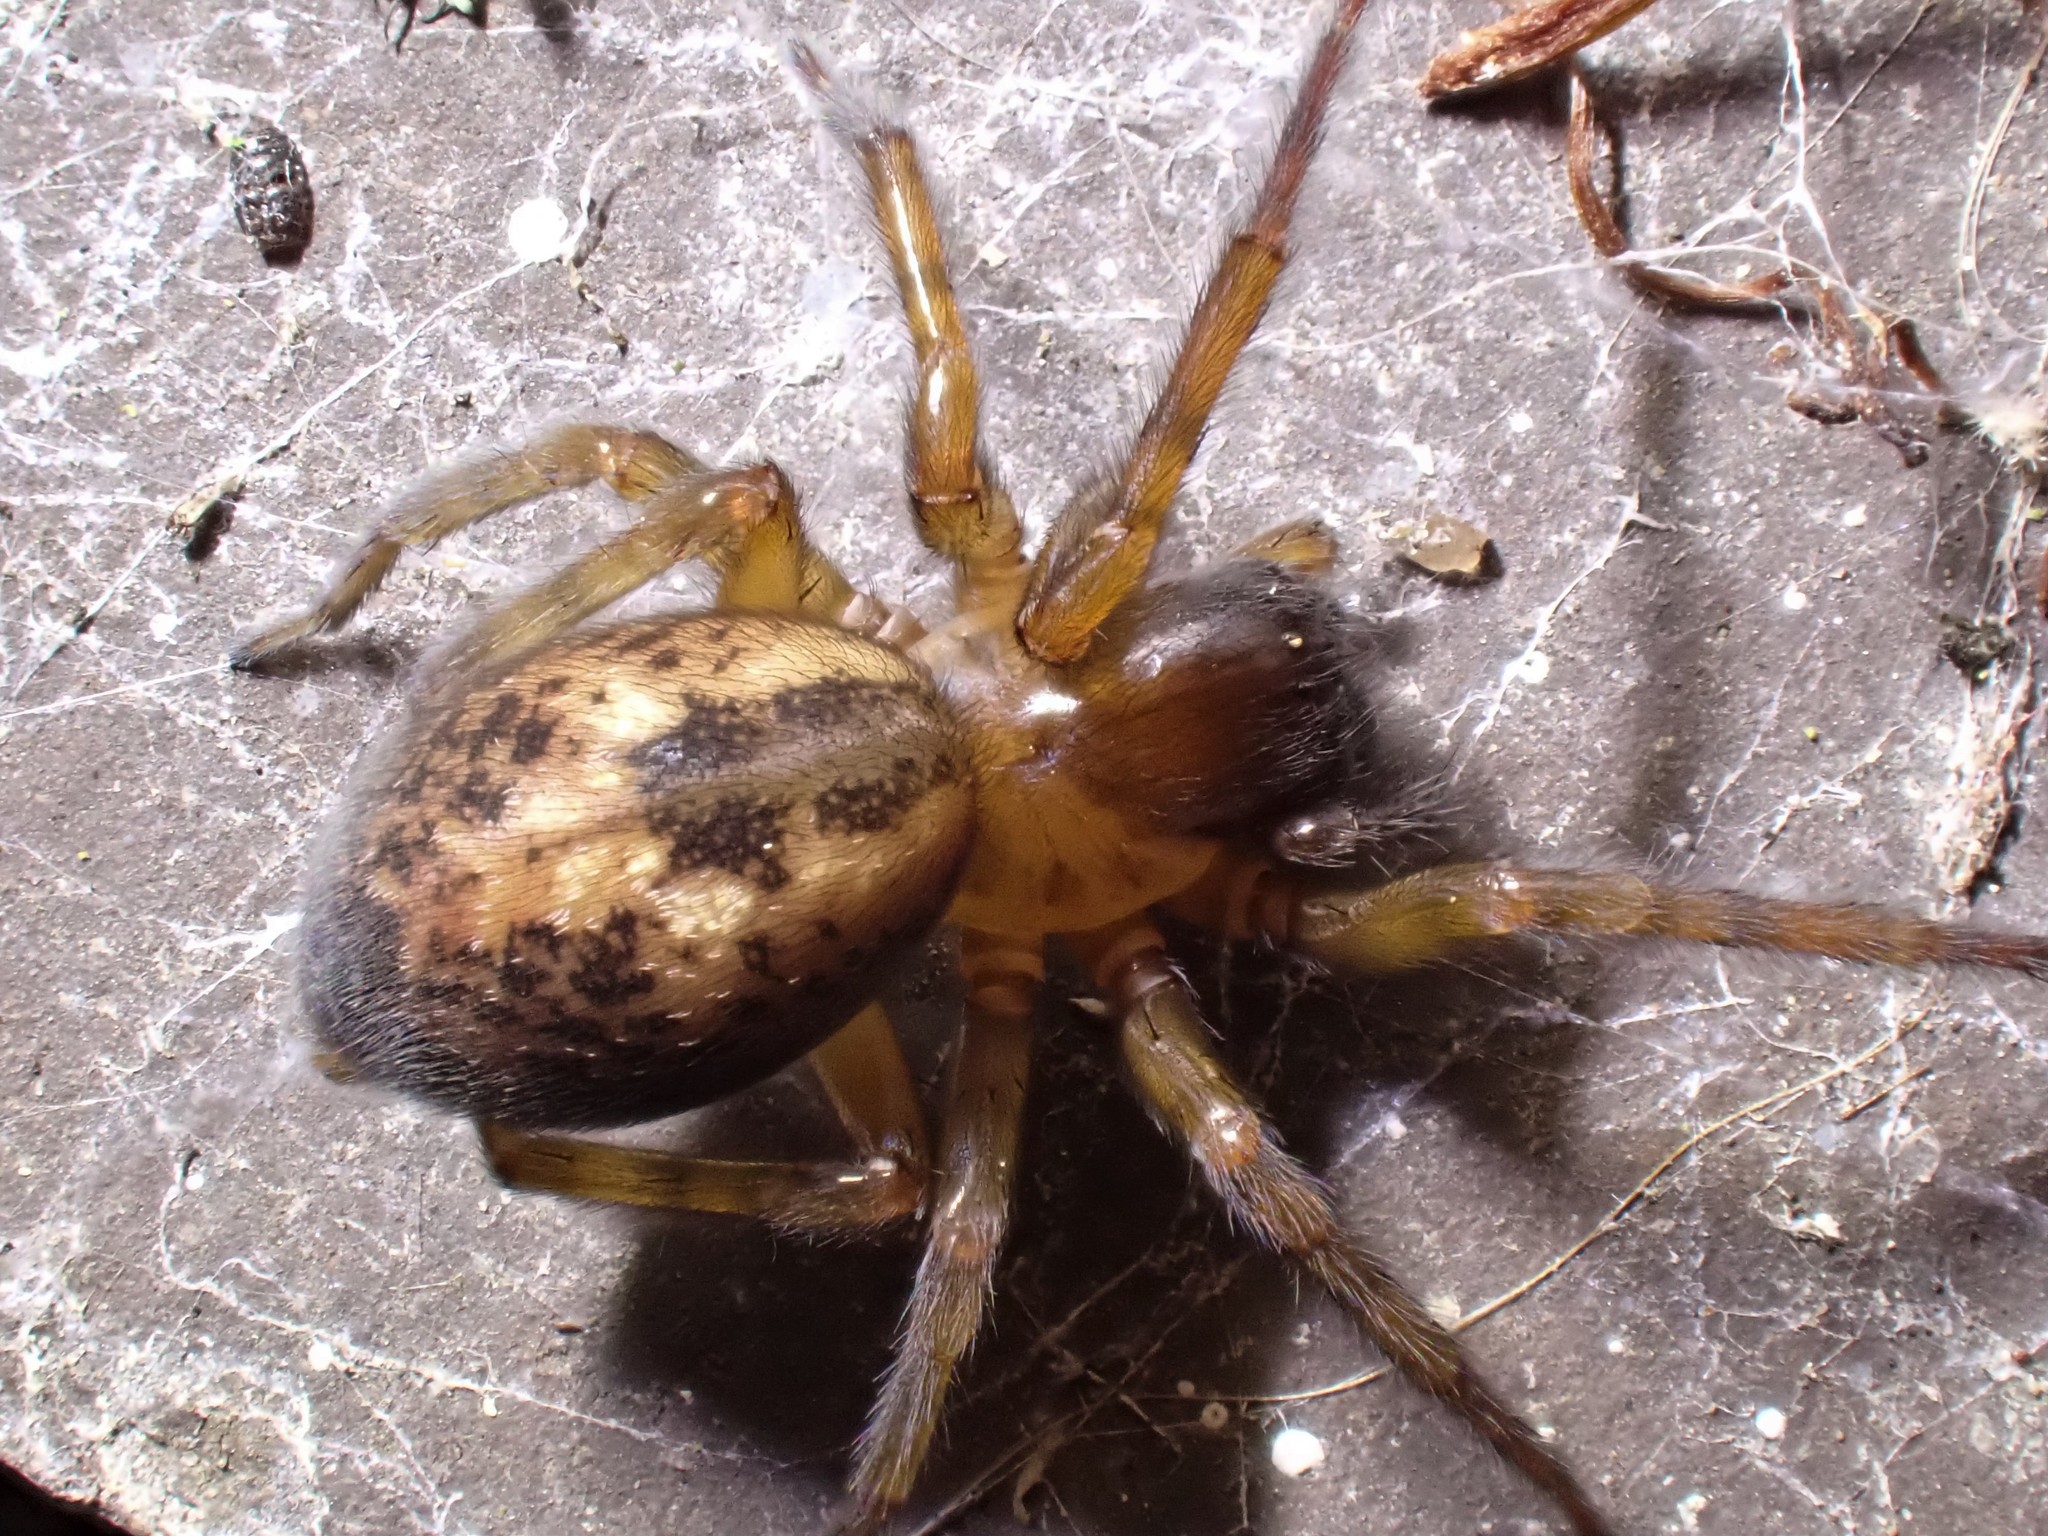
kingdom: Animalia
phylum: Arthropoda
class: Arachnida
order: Araneae
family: Amaurobiidae
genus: Amaurobius
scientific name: Amaurobius similis
